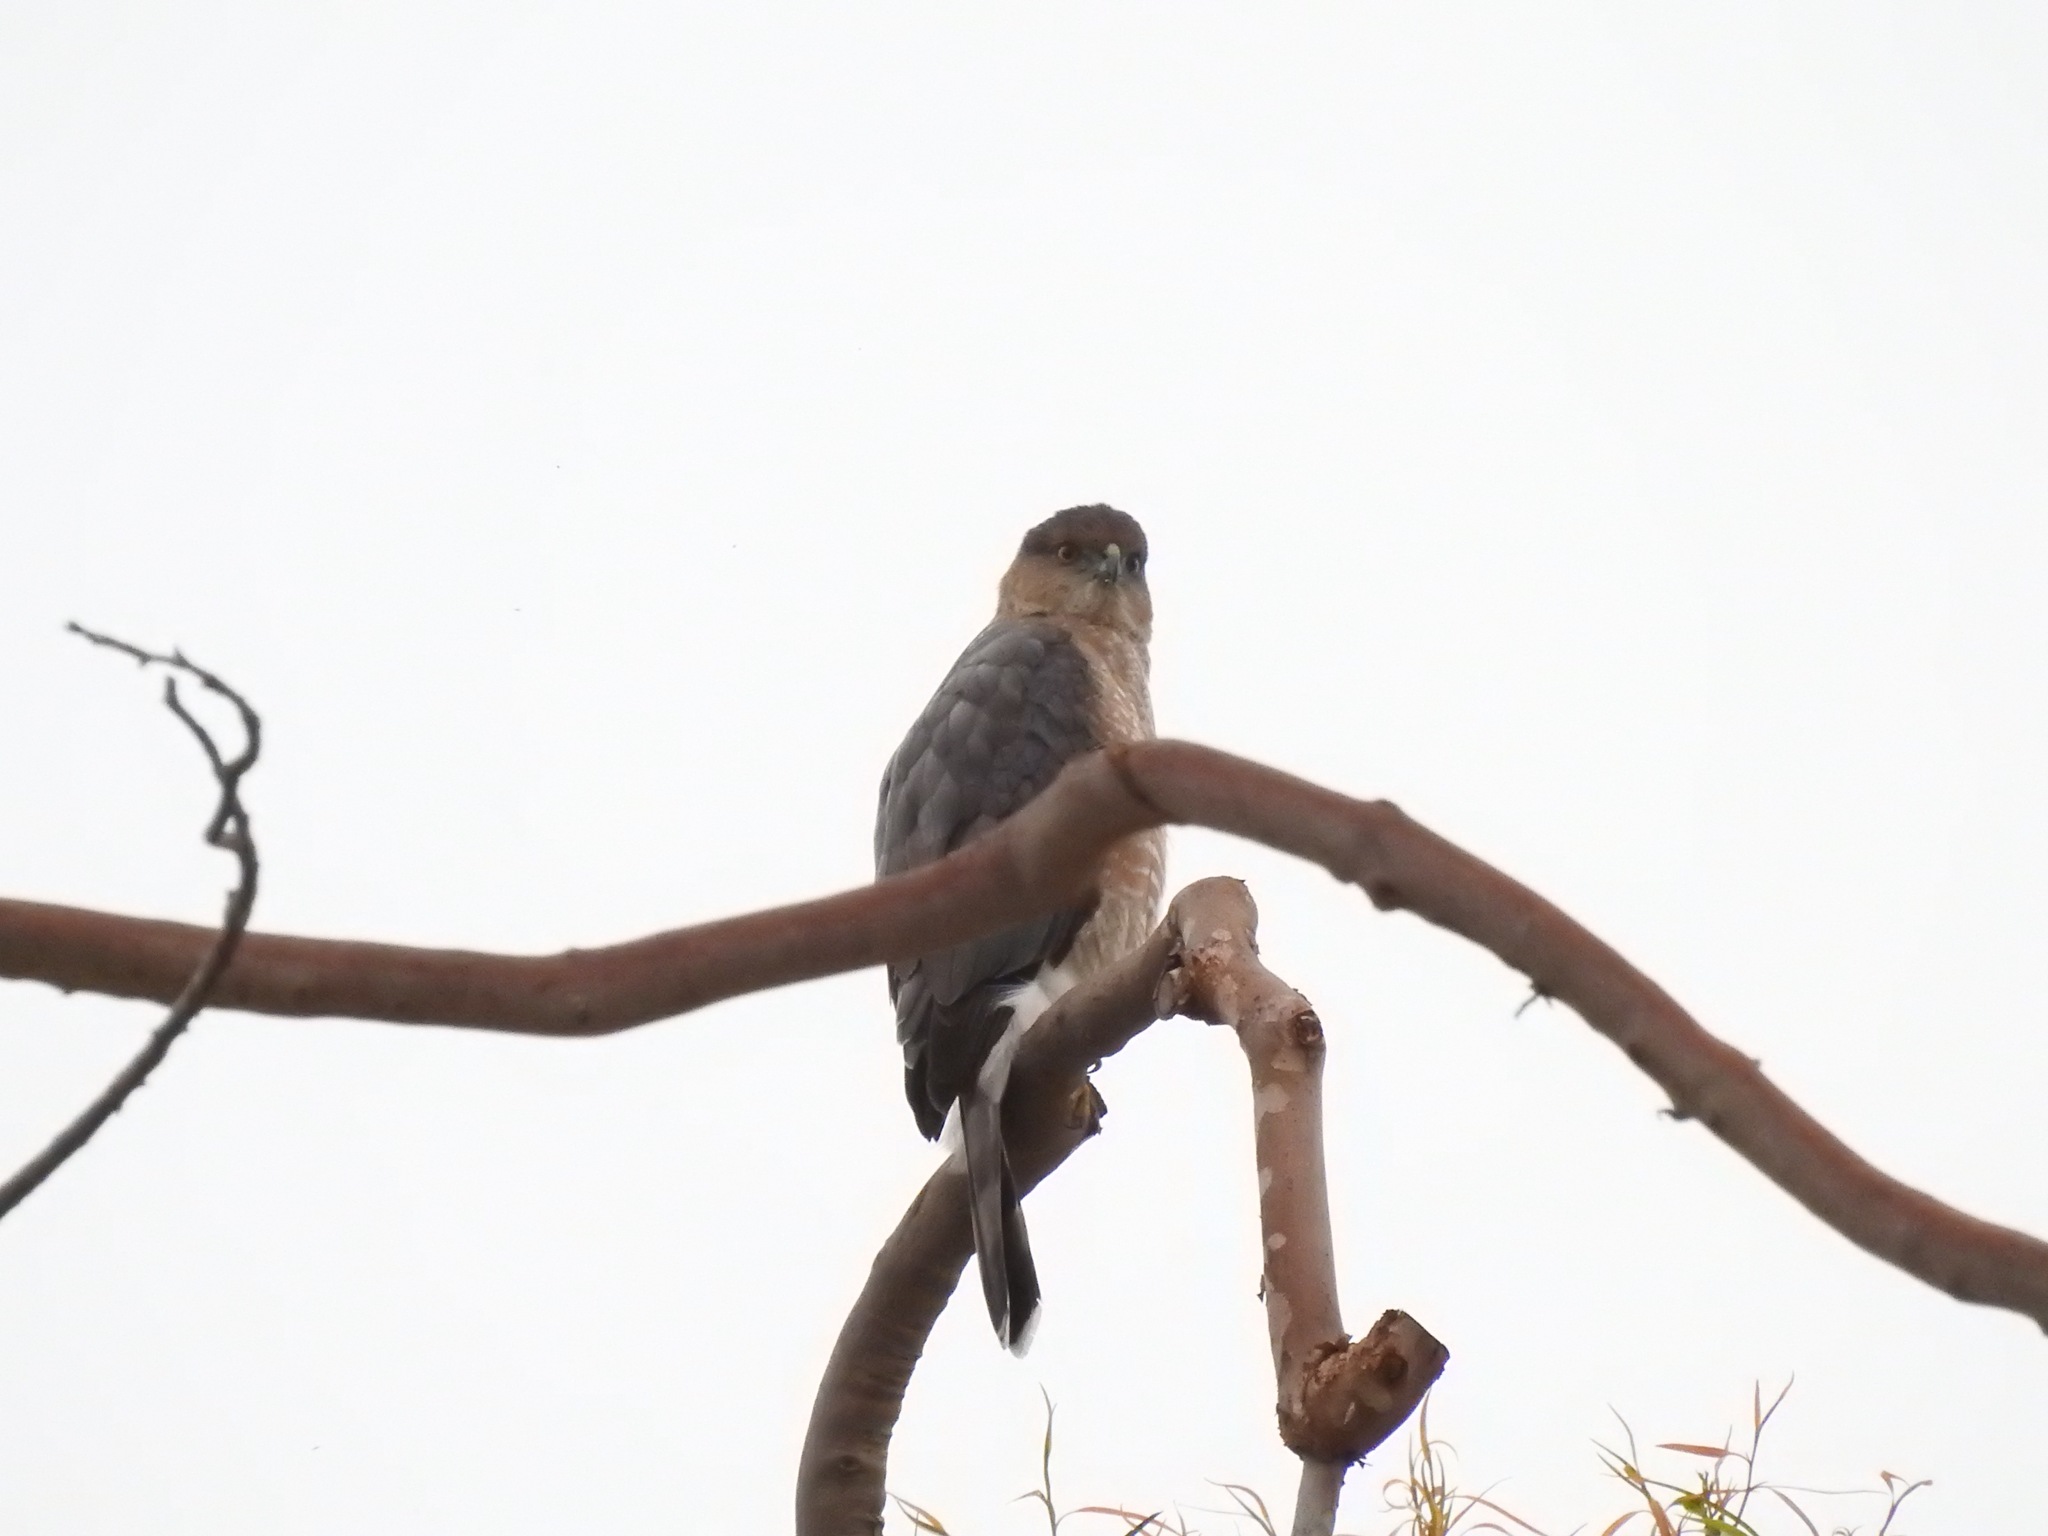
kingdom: Animalia
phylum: Chordata
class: Aves
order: Accipitriformes
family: Accipitridae
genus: Accipiter
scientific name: Accipiter cooperii
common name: Cooper's hawk
